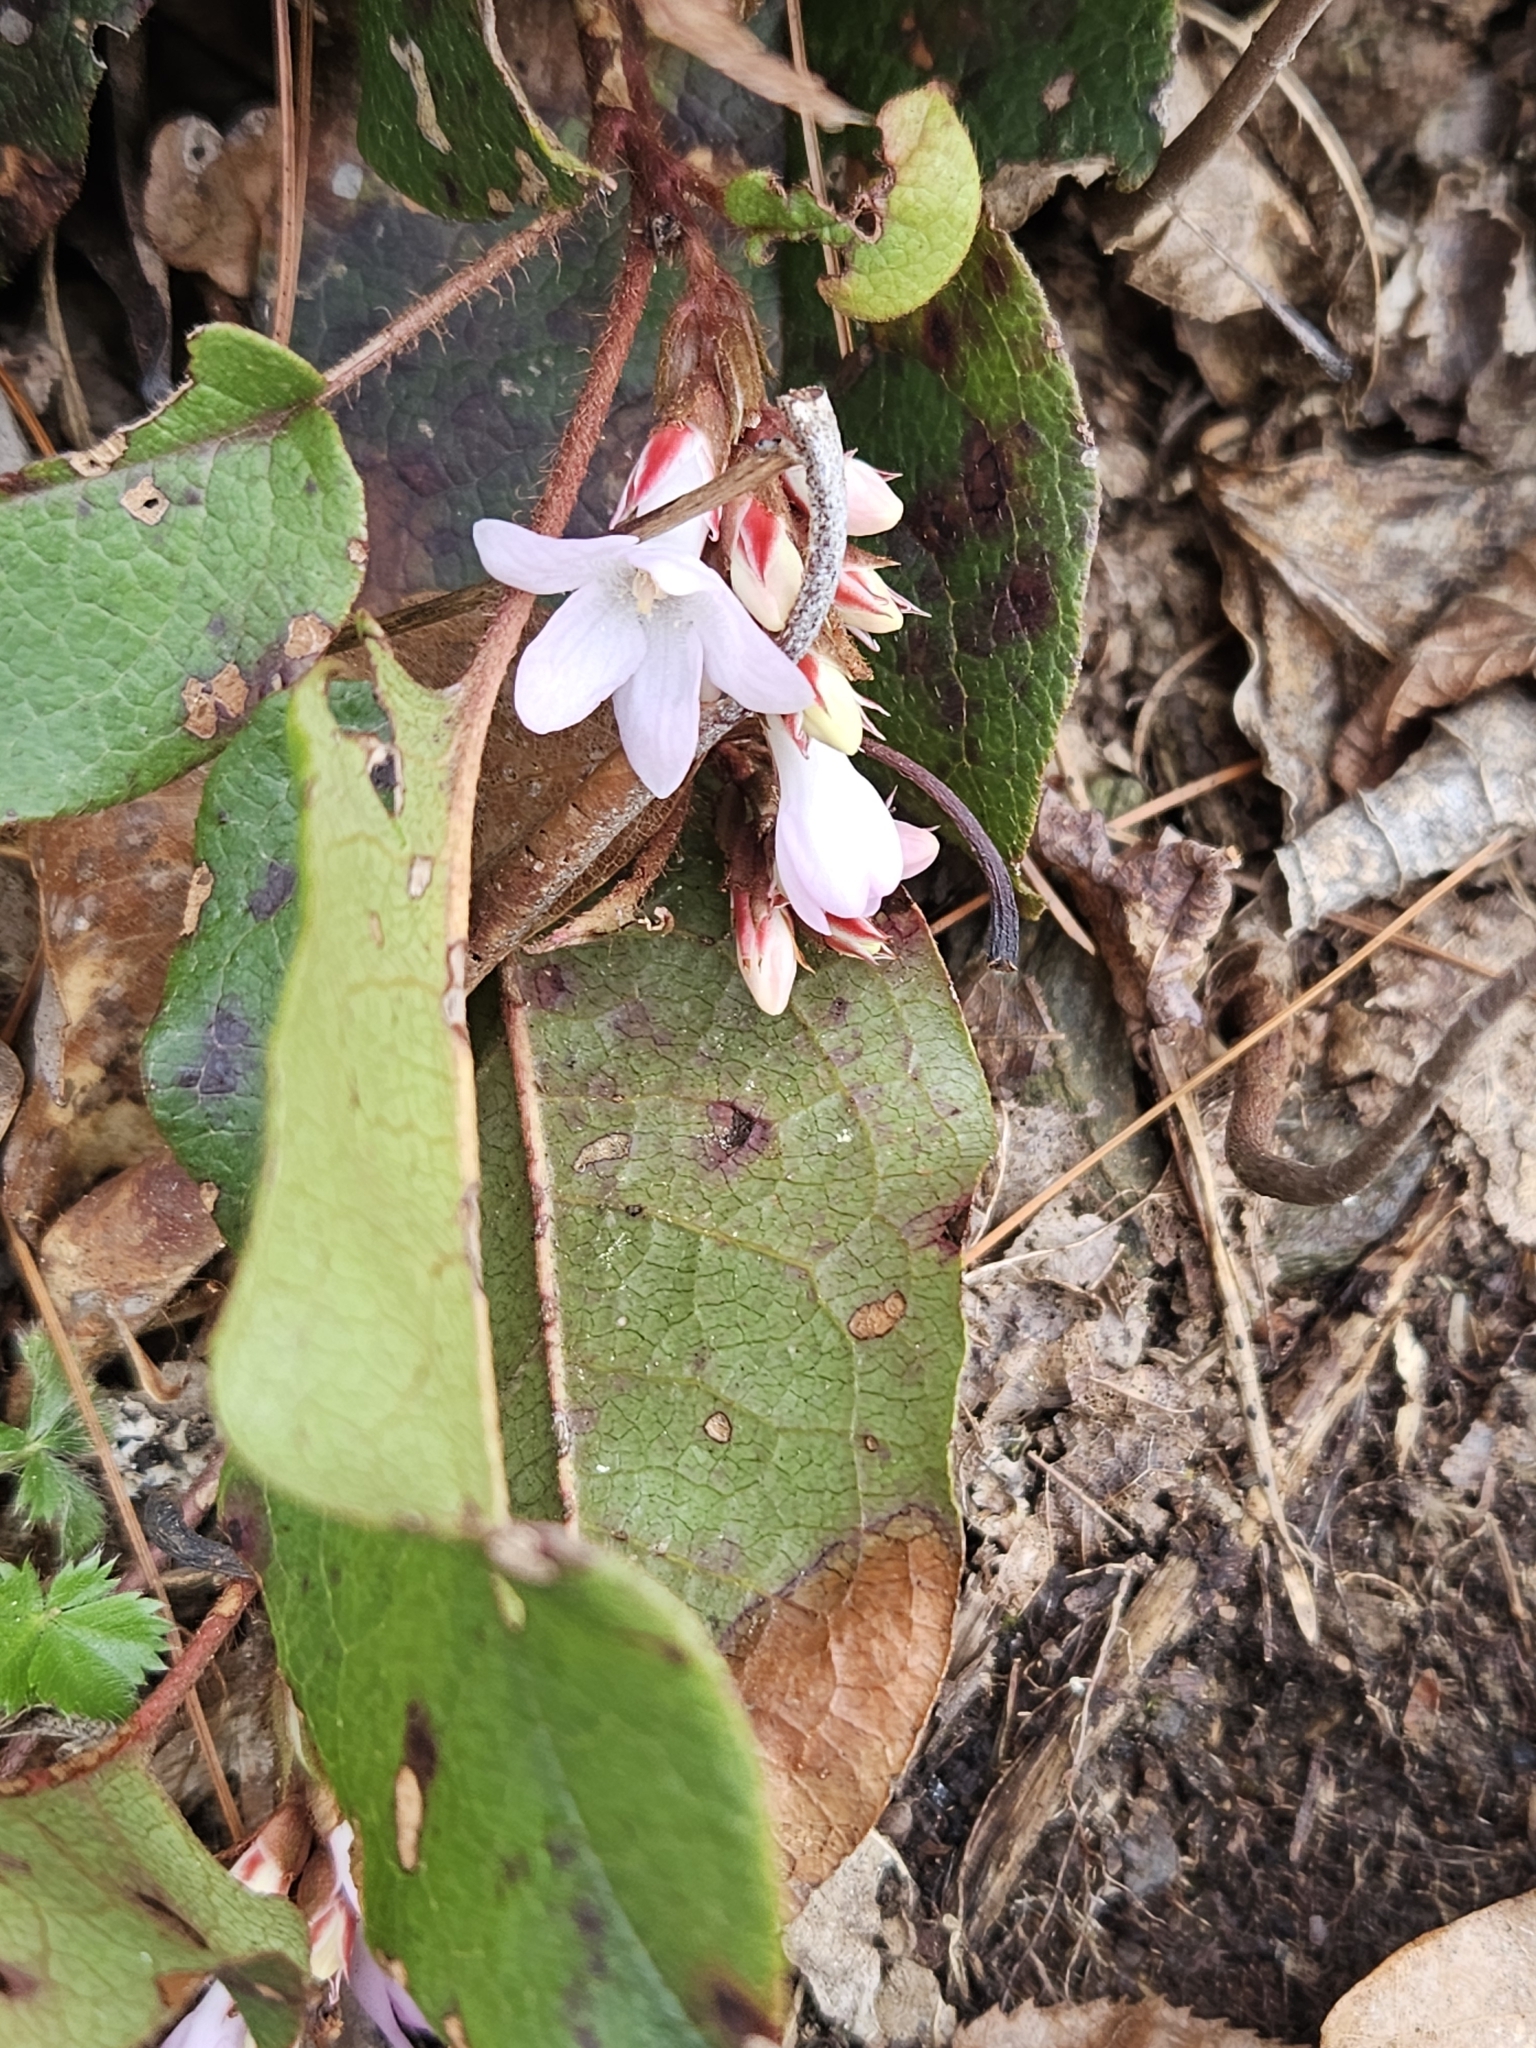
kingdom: Plantae
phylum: Tracheophyta
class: Magnoliopsida
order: Ericales
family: Ericaceae
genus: Epigaea
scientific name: Epigaea repens
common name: Gravelroot
